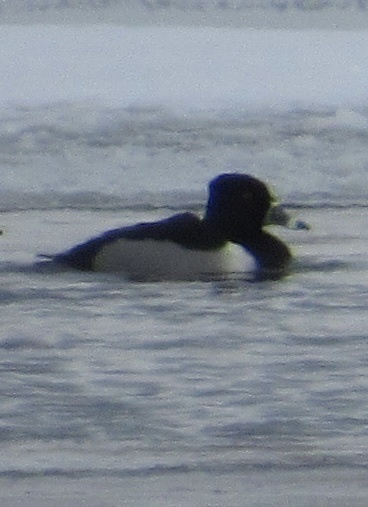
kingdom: Animalia
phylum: Chordata
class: Aves
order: Anseriformes
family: Anatidae
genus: Aythya
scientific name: Aythya collaris
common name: Ring-necked duck
